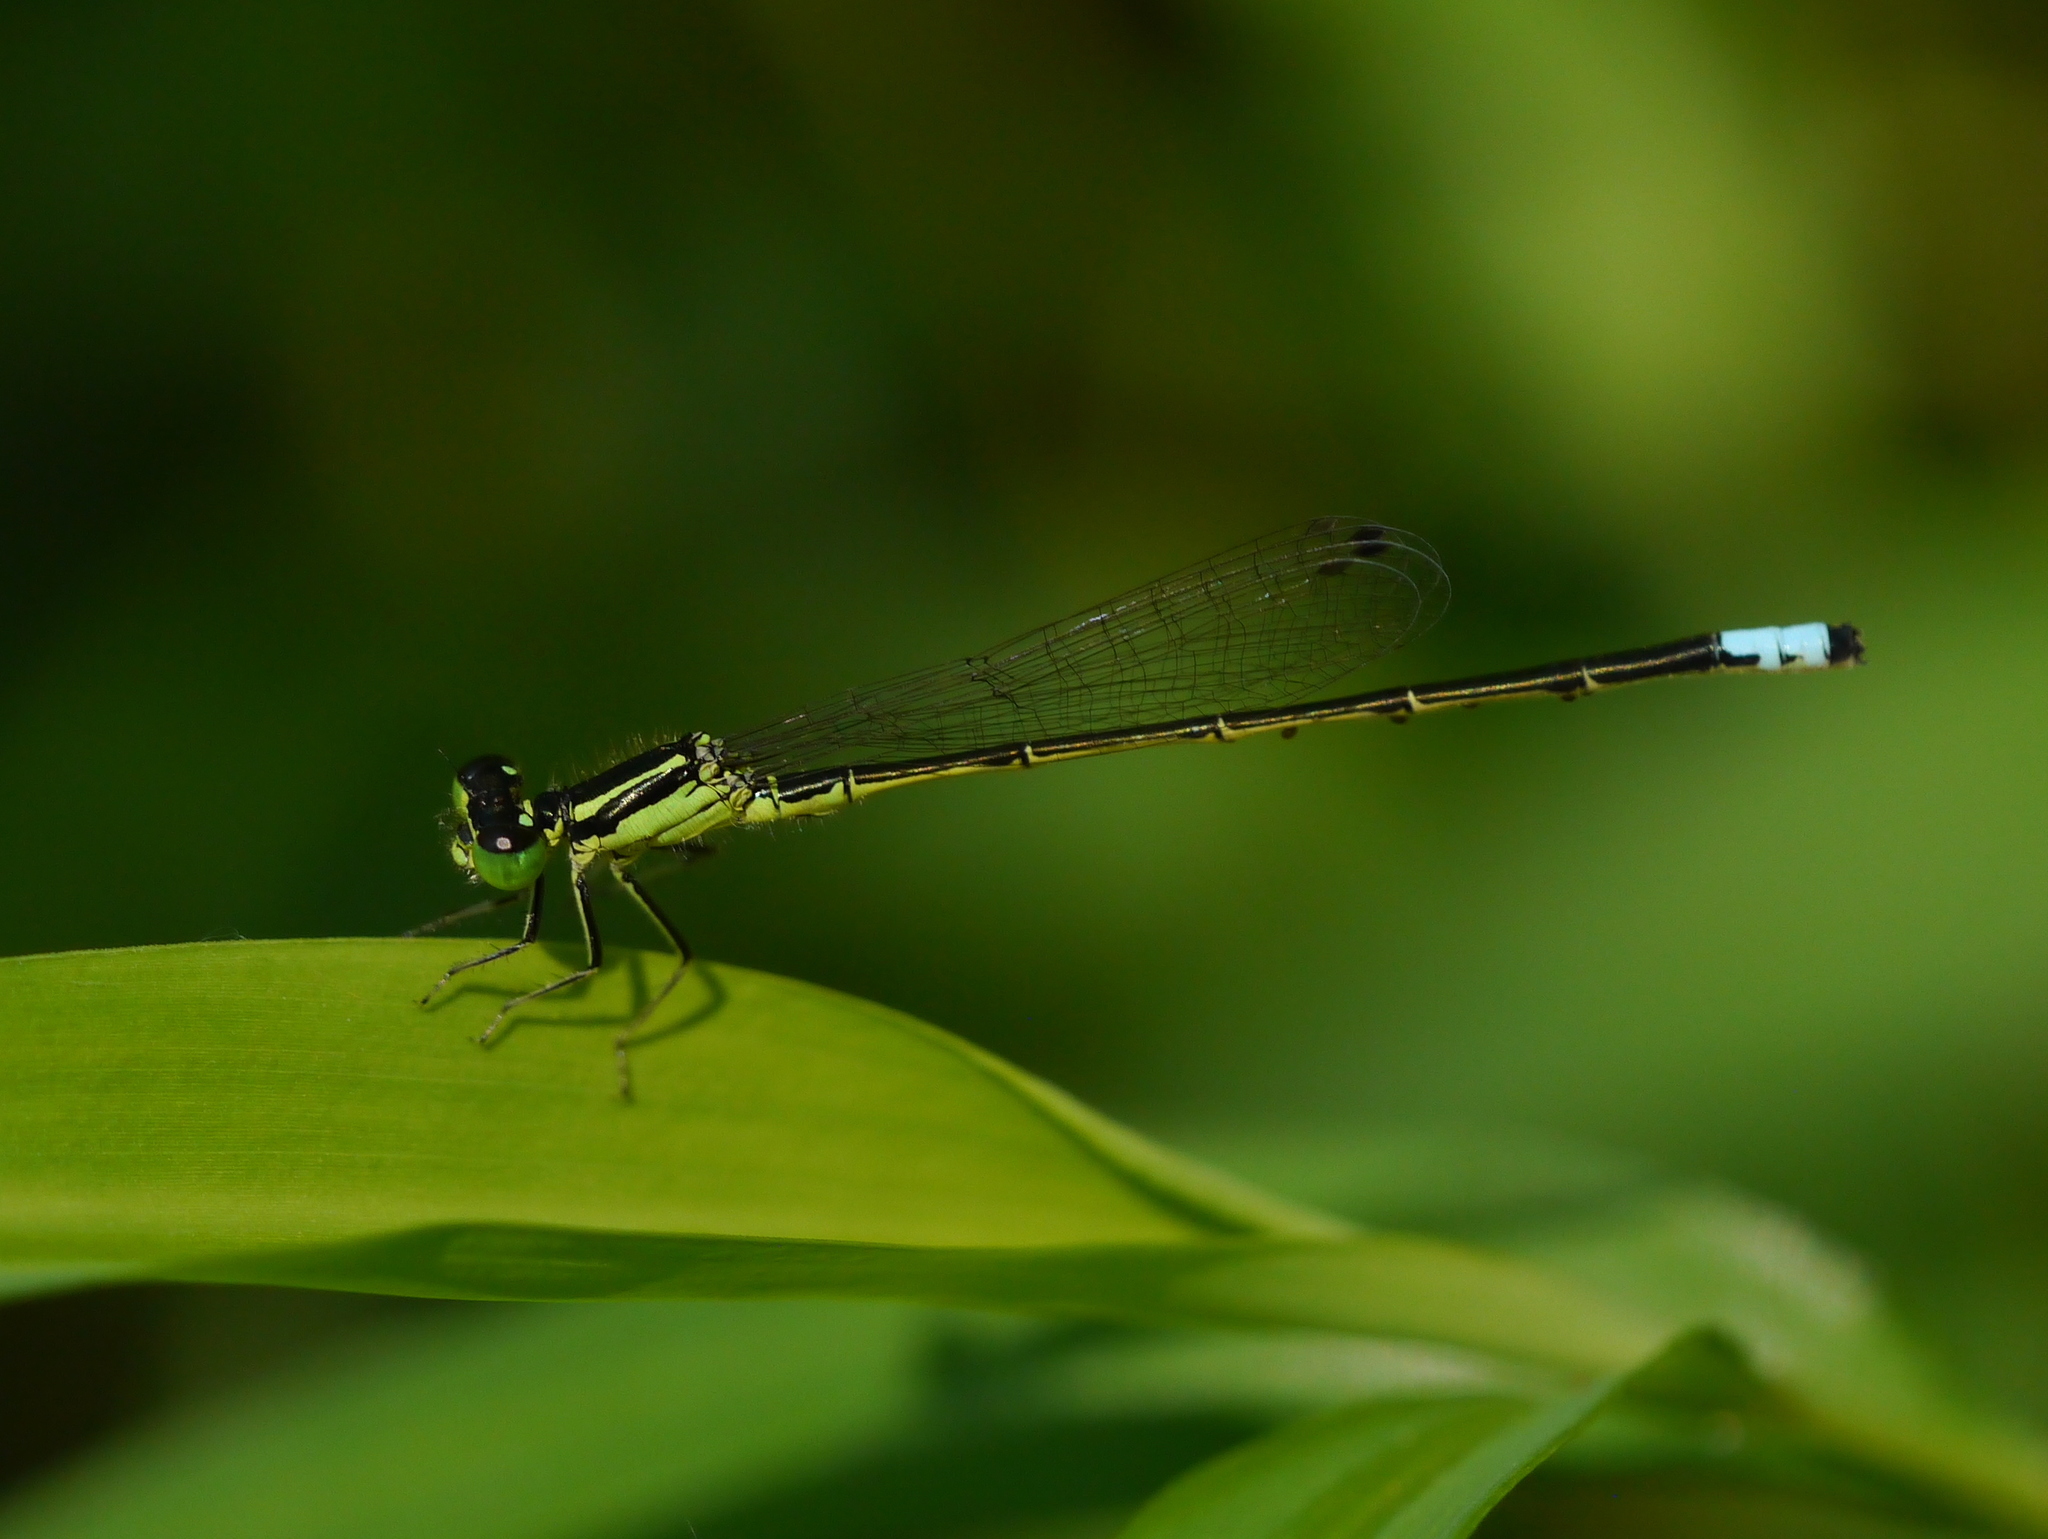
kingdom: Animalia
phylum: Arthropoda
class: Insecta
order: Odonata
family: Coenagrionidae
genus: Ischnura
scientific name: Ischnura verticalis
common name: Eastern forktail
